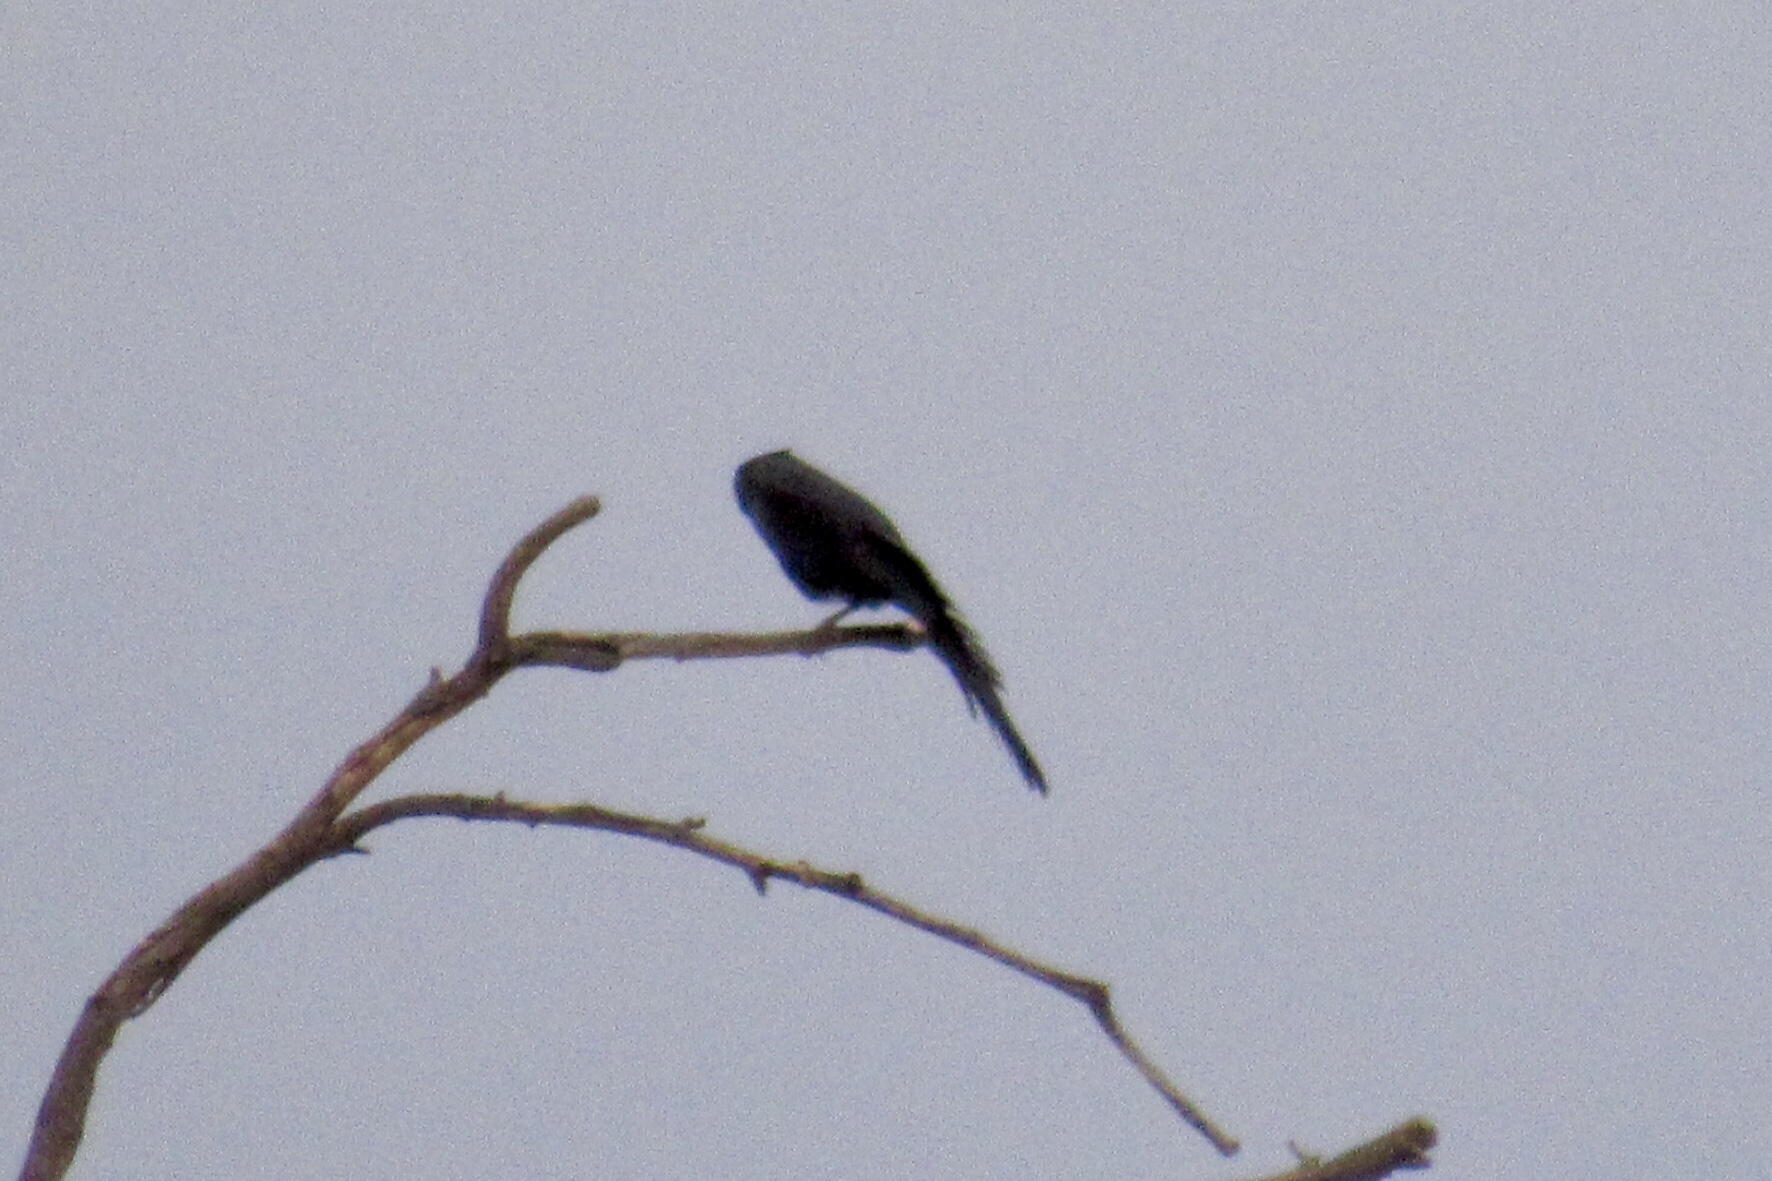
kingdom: Animalia
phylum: Chordata
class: Aves
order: Passeriformes
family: Ptilogonatidae
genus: Phainopepla
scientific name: Phainopepla nitens
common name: Phainopepla
